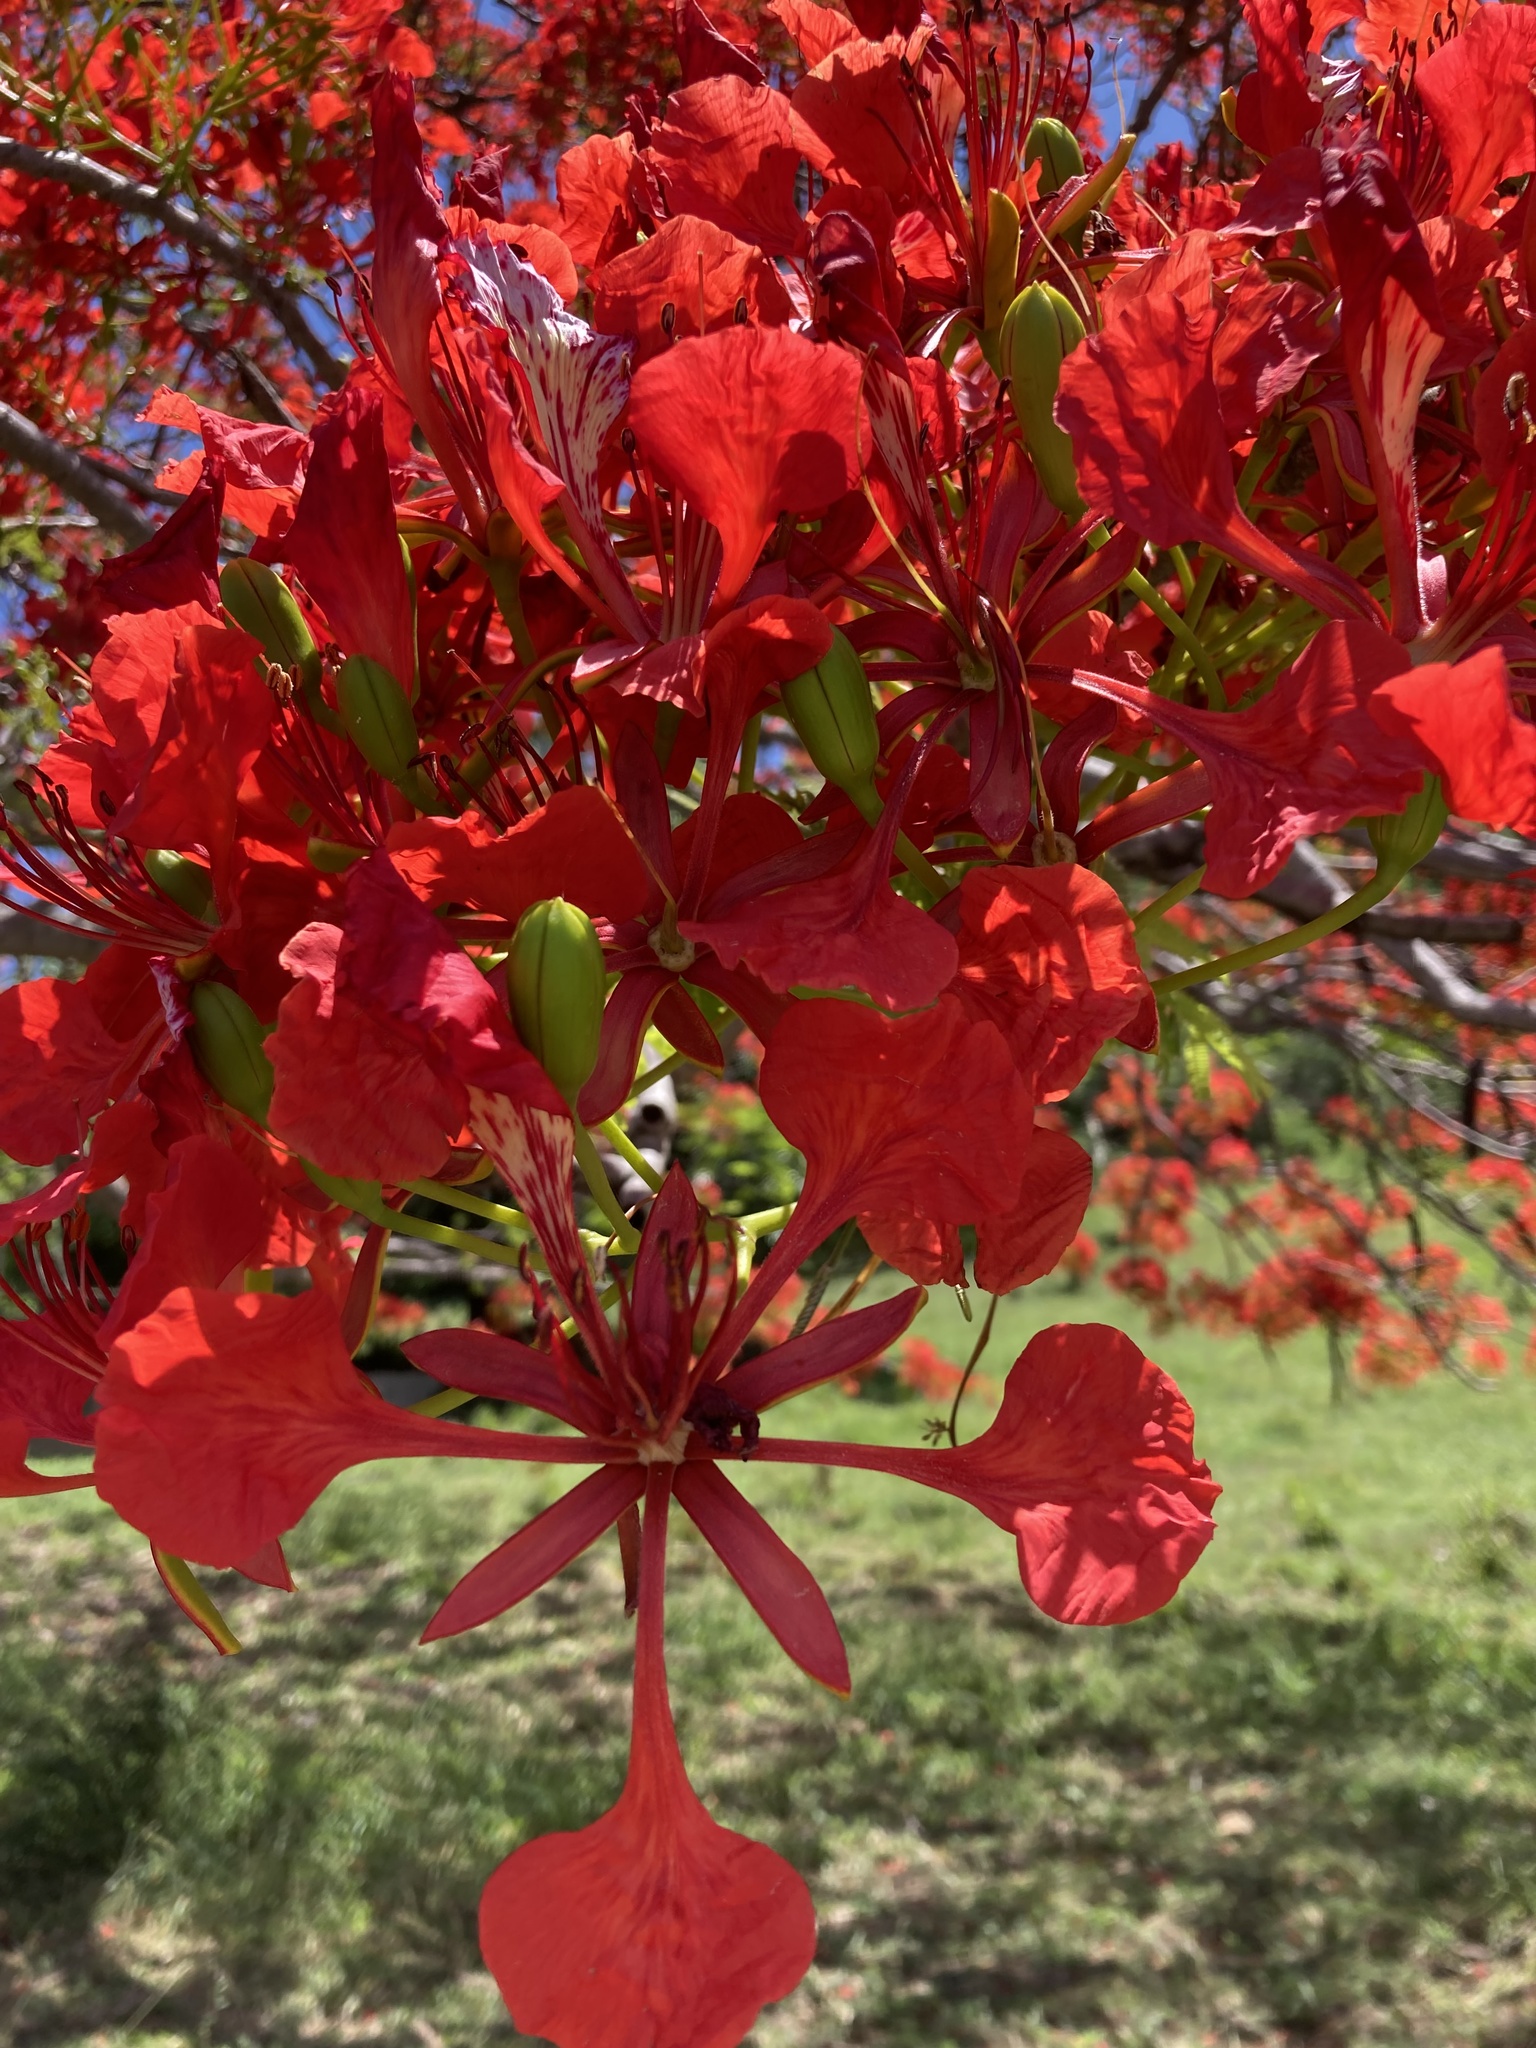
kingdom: Plantae
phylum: Tracheophyta
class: Magnoliopsida
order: Fabales
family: Fabaceae
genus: Delonix
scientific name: Delonix regia
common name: Royal poinciana
